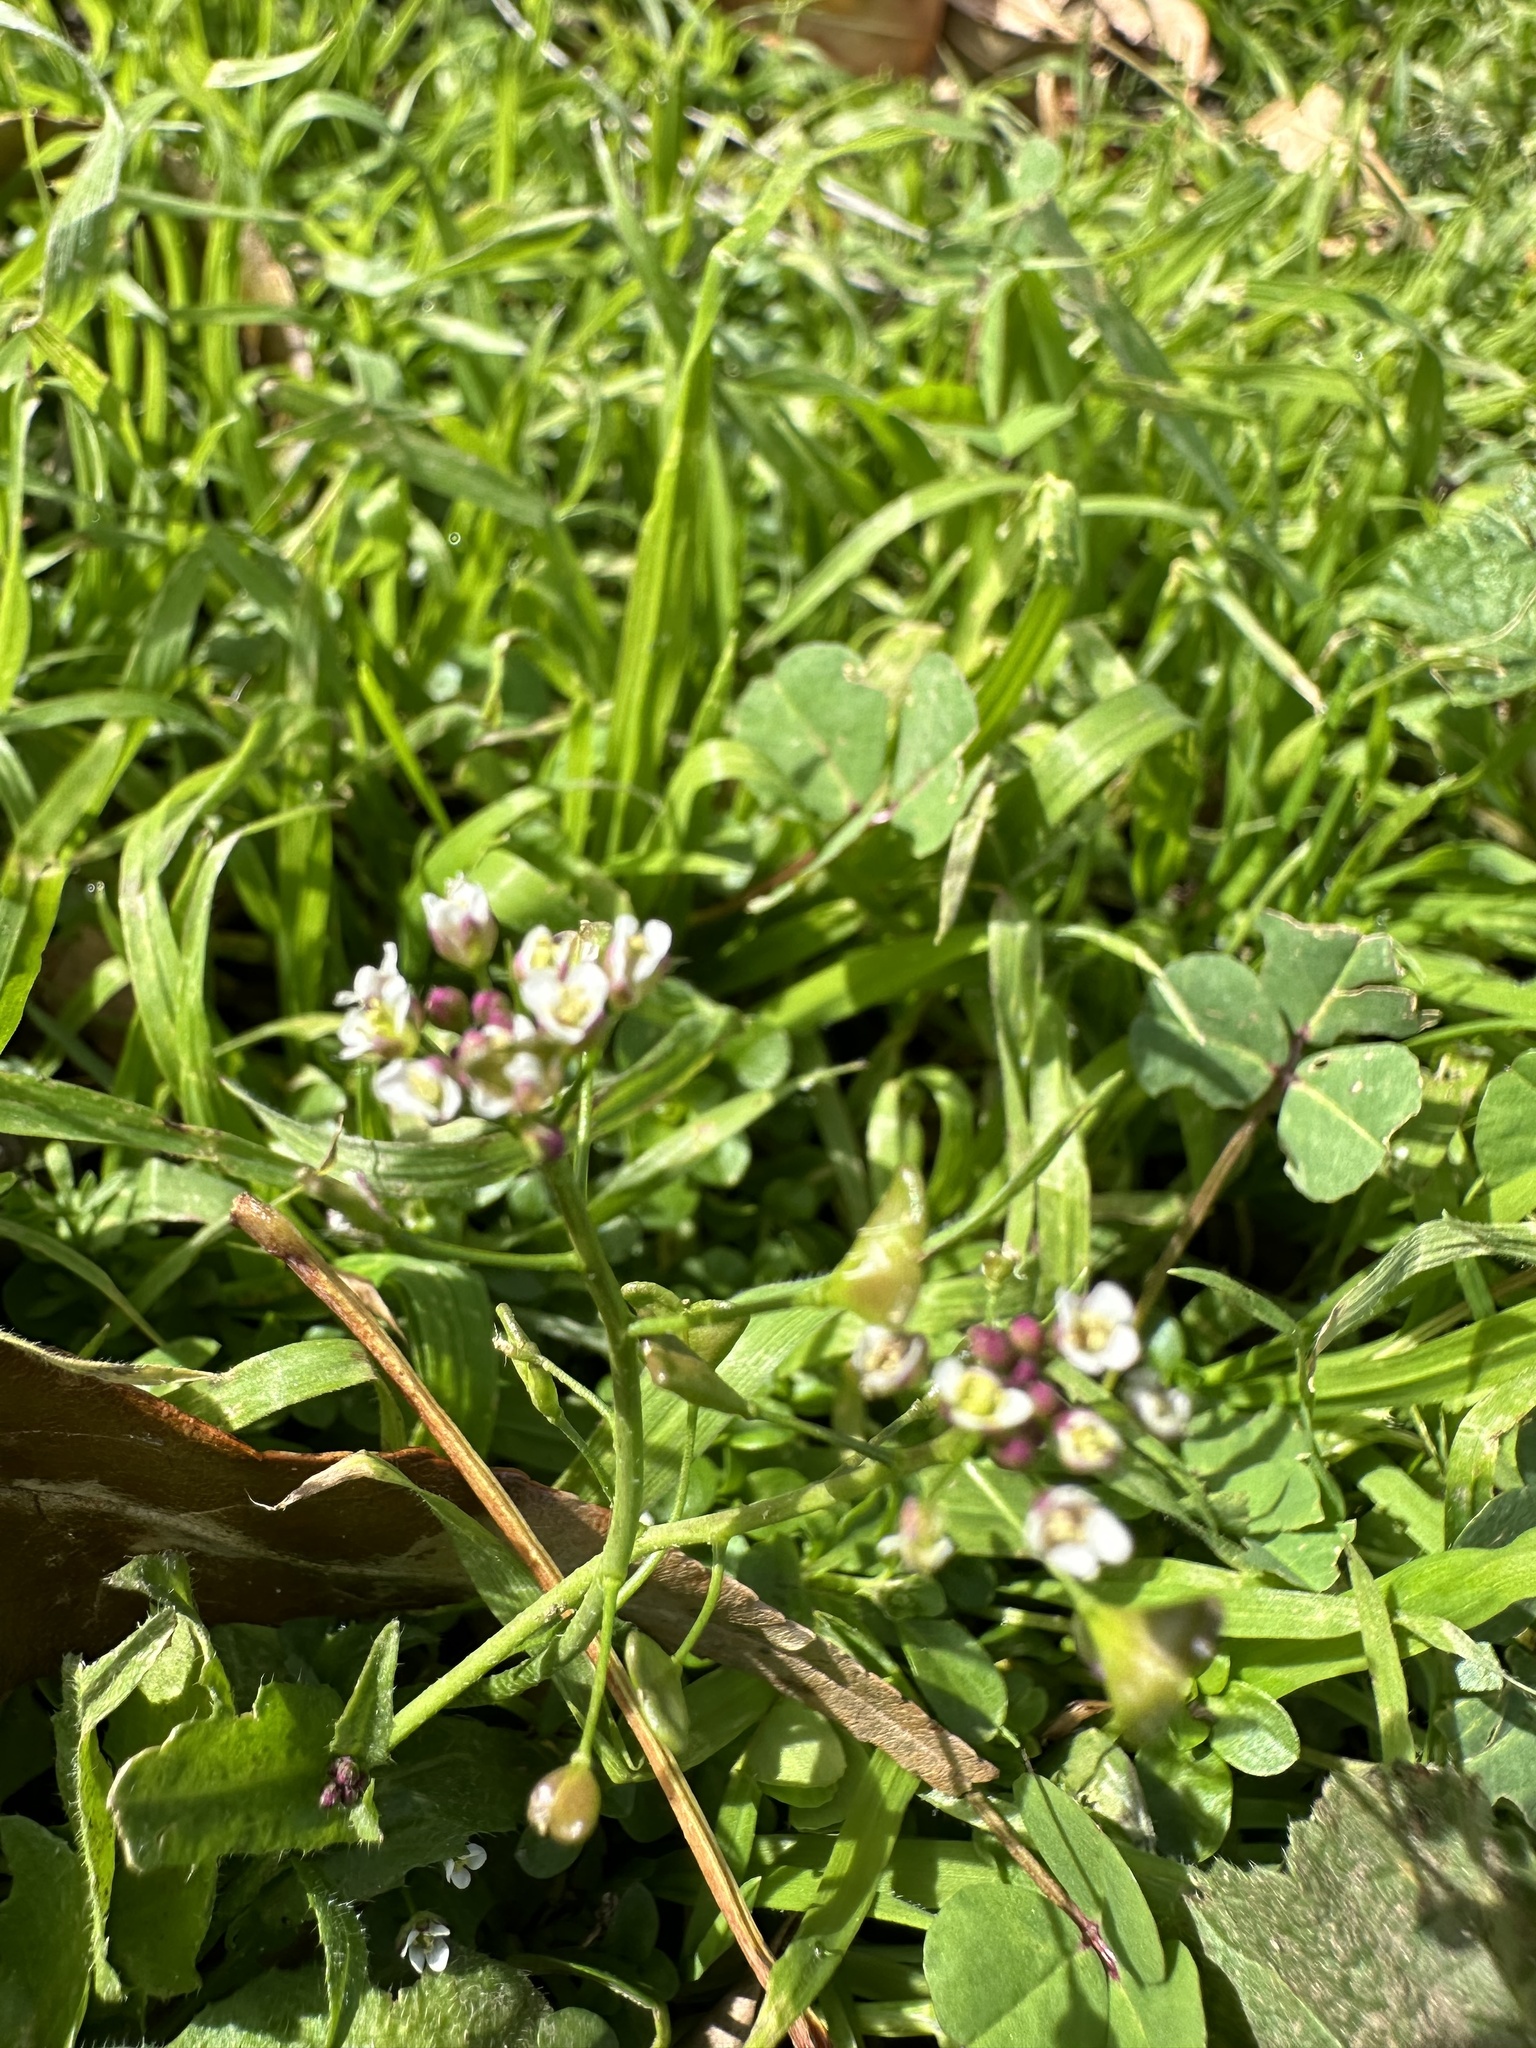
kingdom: Plantae
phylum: Tracheophyta
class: Magnoliopsida
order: Brassicales
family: Brassicaceae
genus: Capsella
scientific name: Capsella bursa-pastoris
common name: Shepherd's purse
